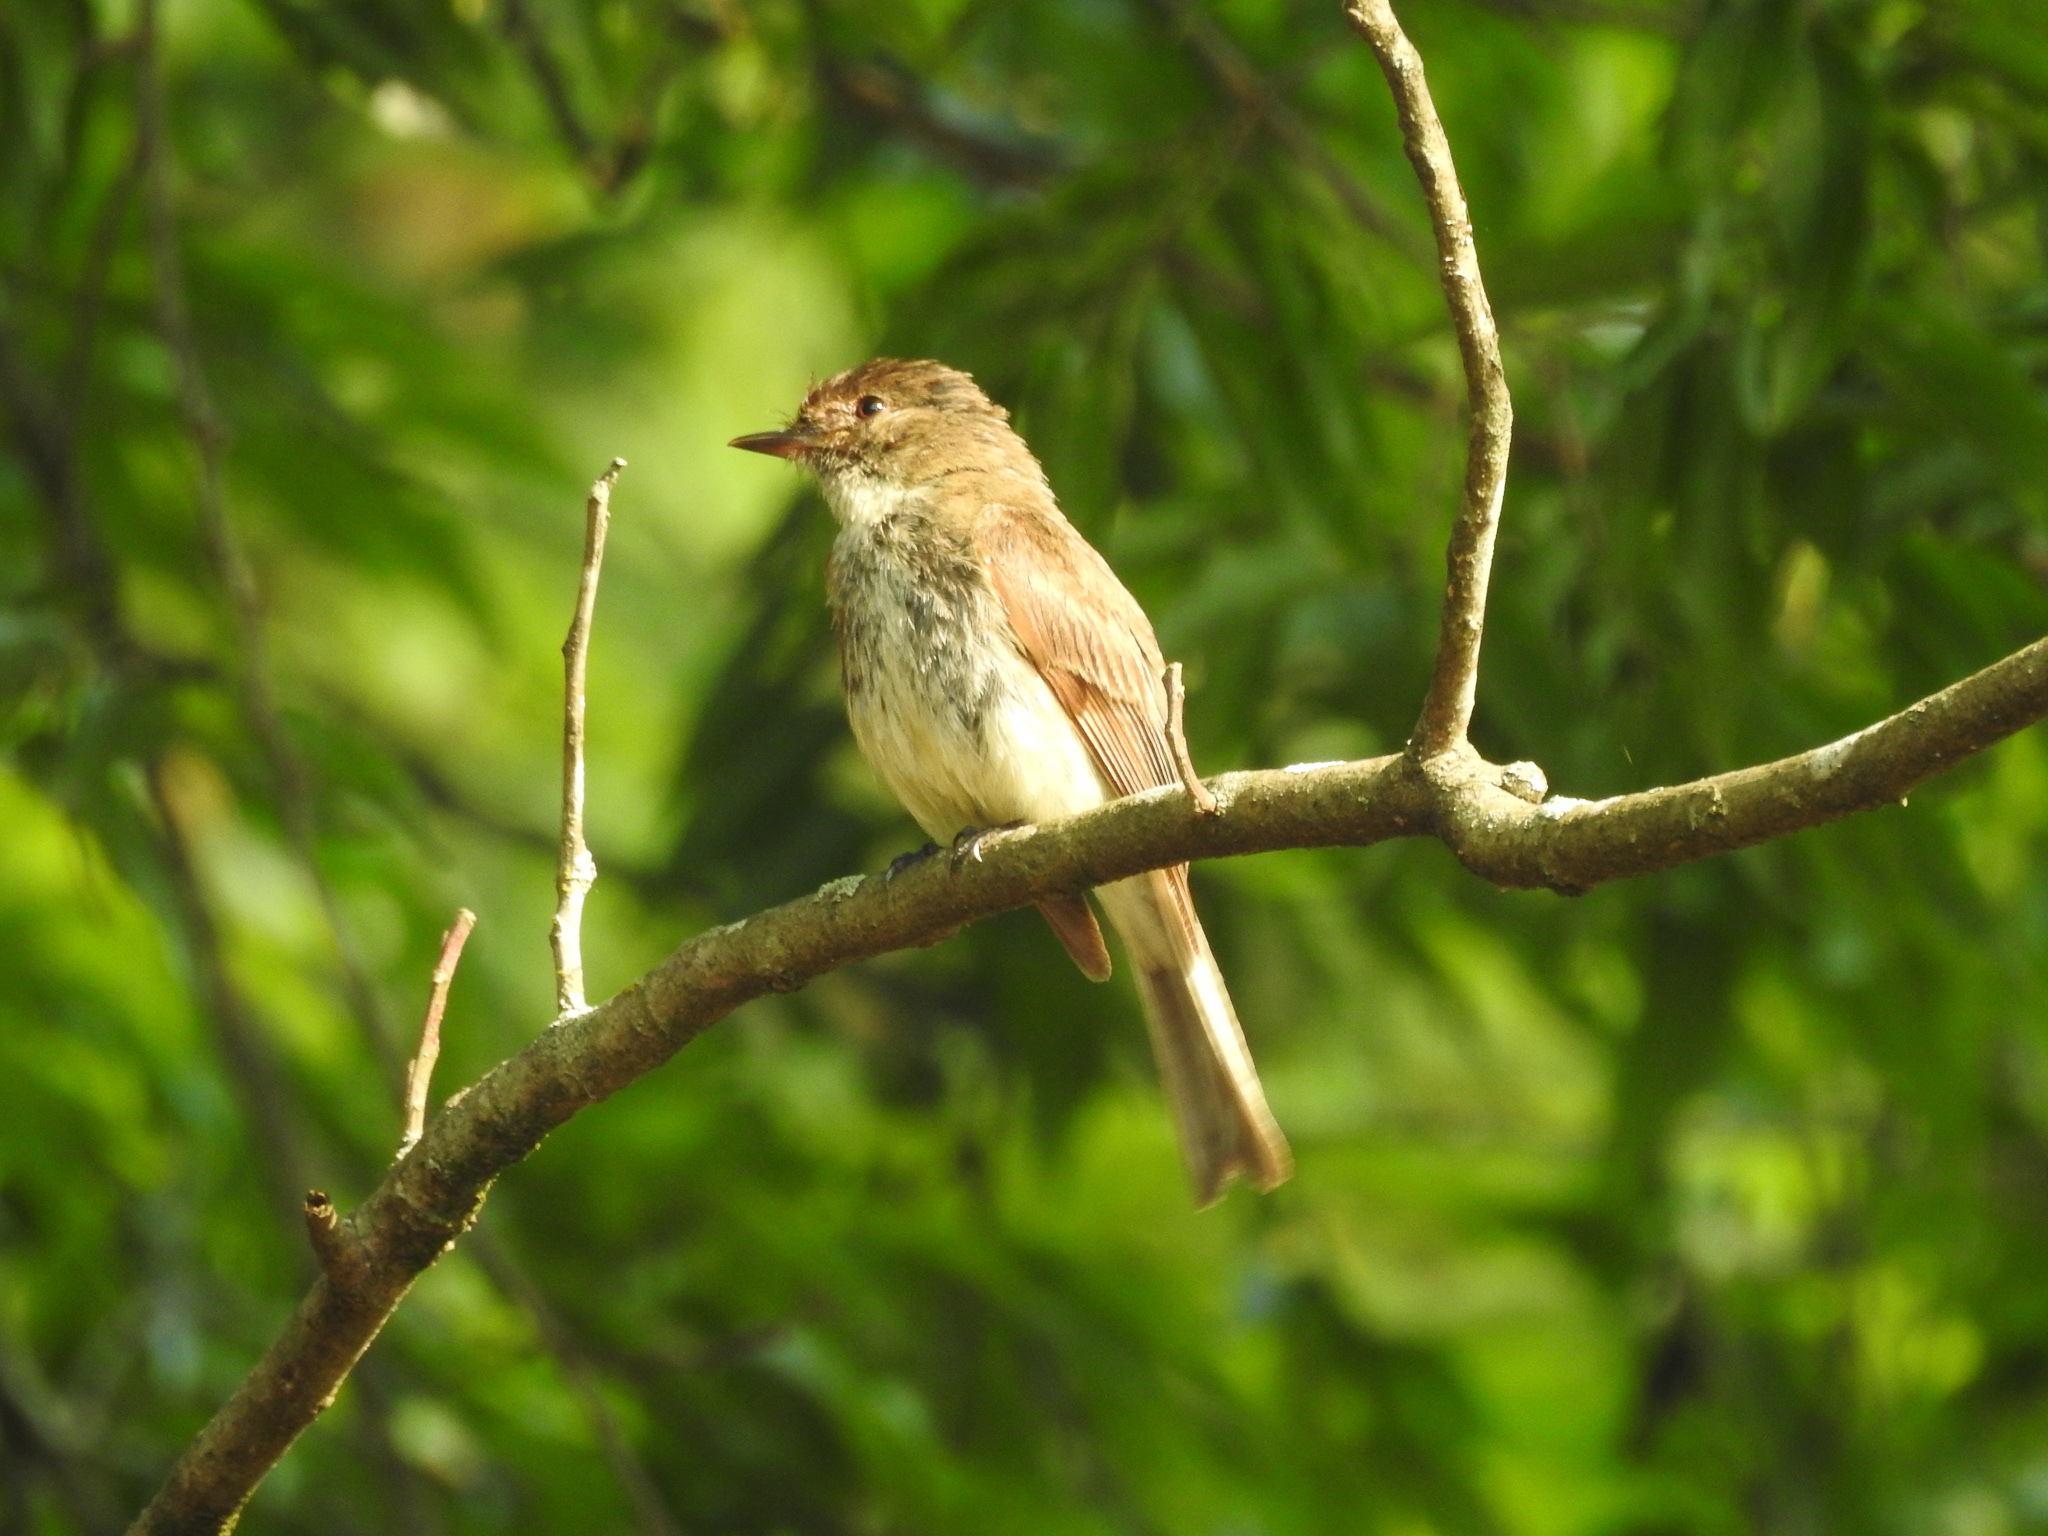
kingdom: Animalia
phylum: Chordata
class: Aves
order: Passeriformes
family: Tyrannidae
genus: Sayornis
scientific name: Sayornis phoebe
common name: Eastern phoebe
